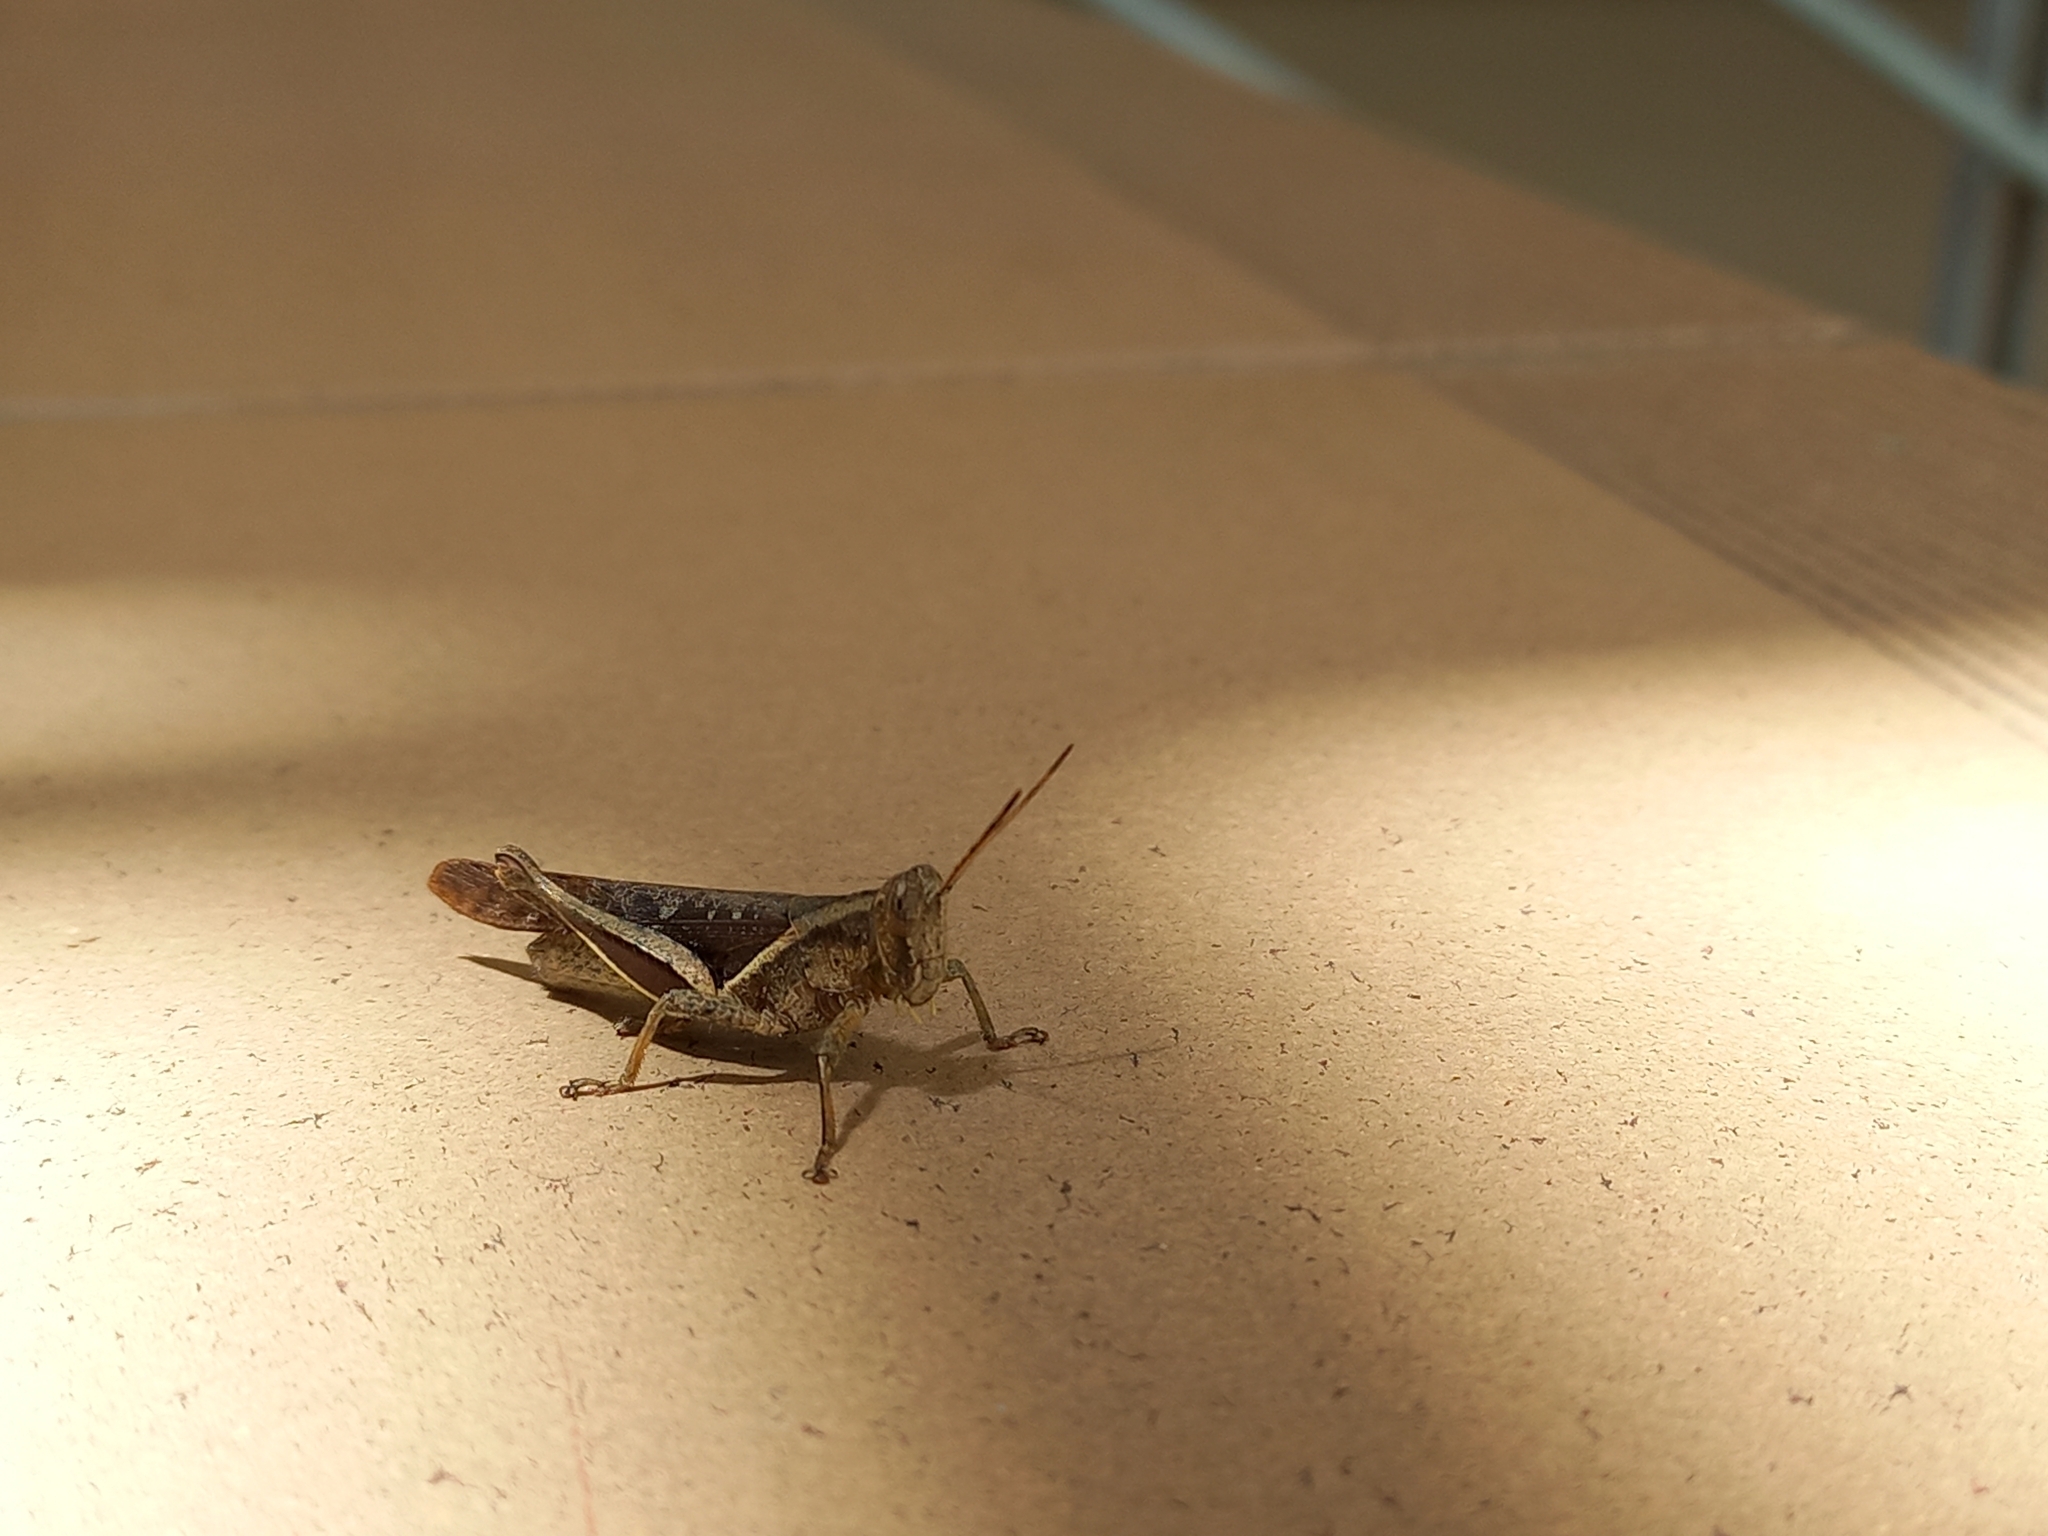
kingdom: Animalia
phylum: Arthropoda
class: Insecta
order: Orthoptera
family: Acrididae
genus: Abracris
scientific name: Abracris flavolineata
